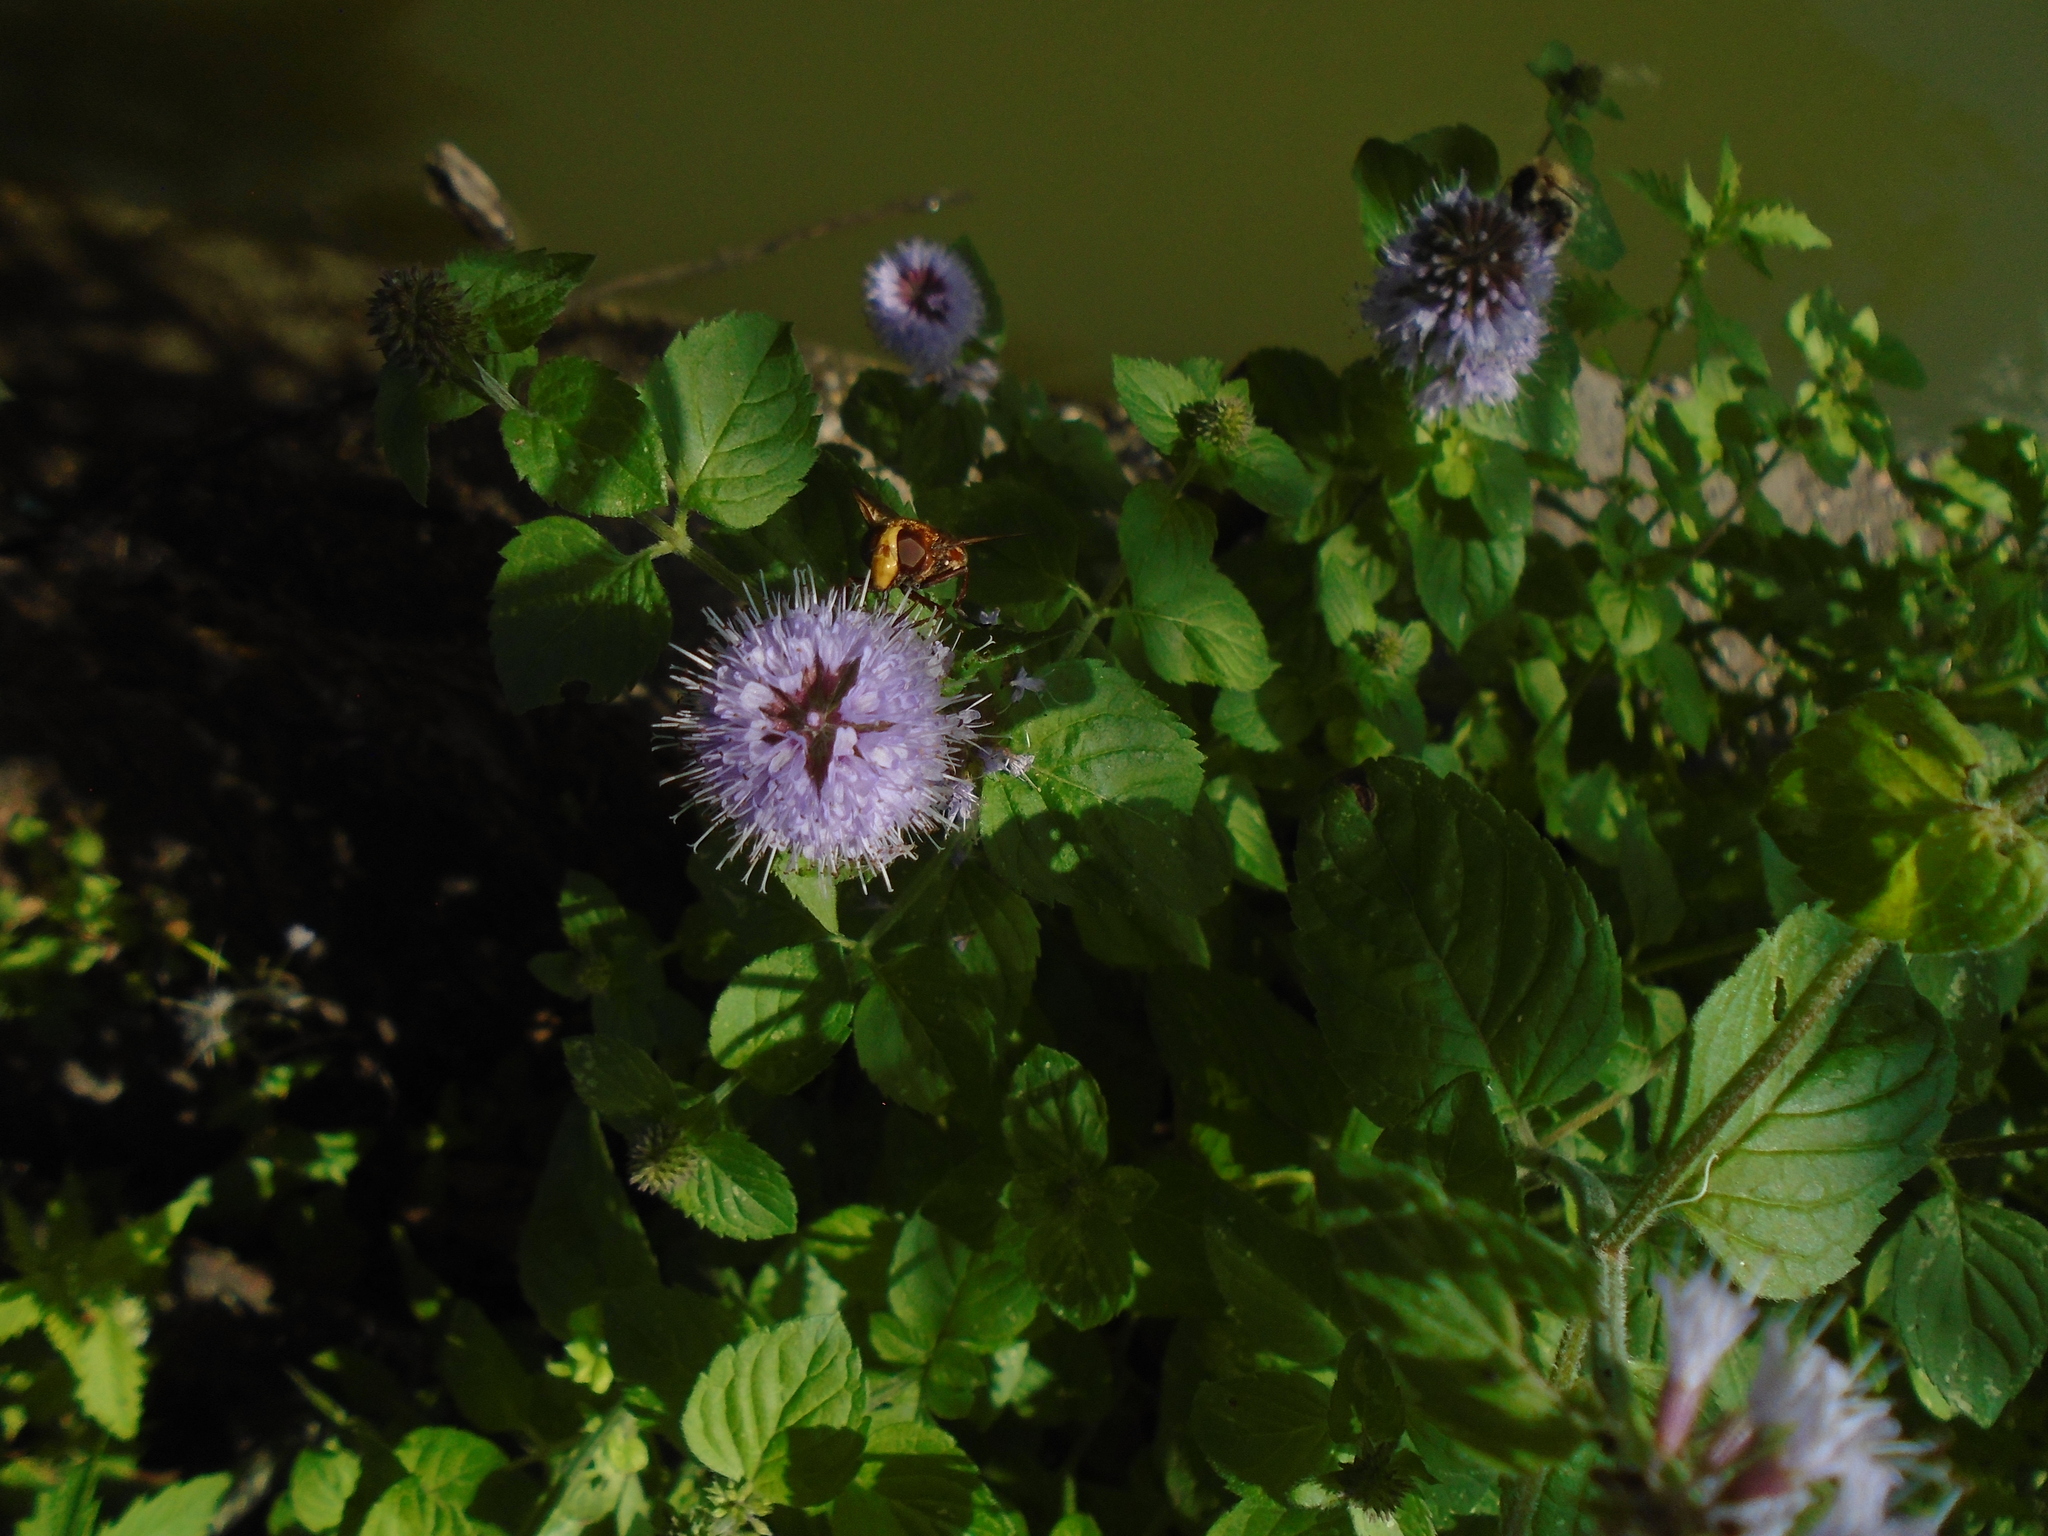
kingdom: Plantae
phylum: Tracheophyta
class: Magnoliopsida
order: Lamiales
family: Lamiaceae
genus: Mentha
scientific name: Mentha aquatica
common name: Water mint
